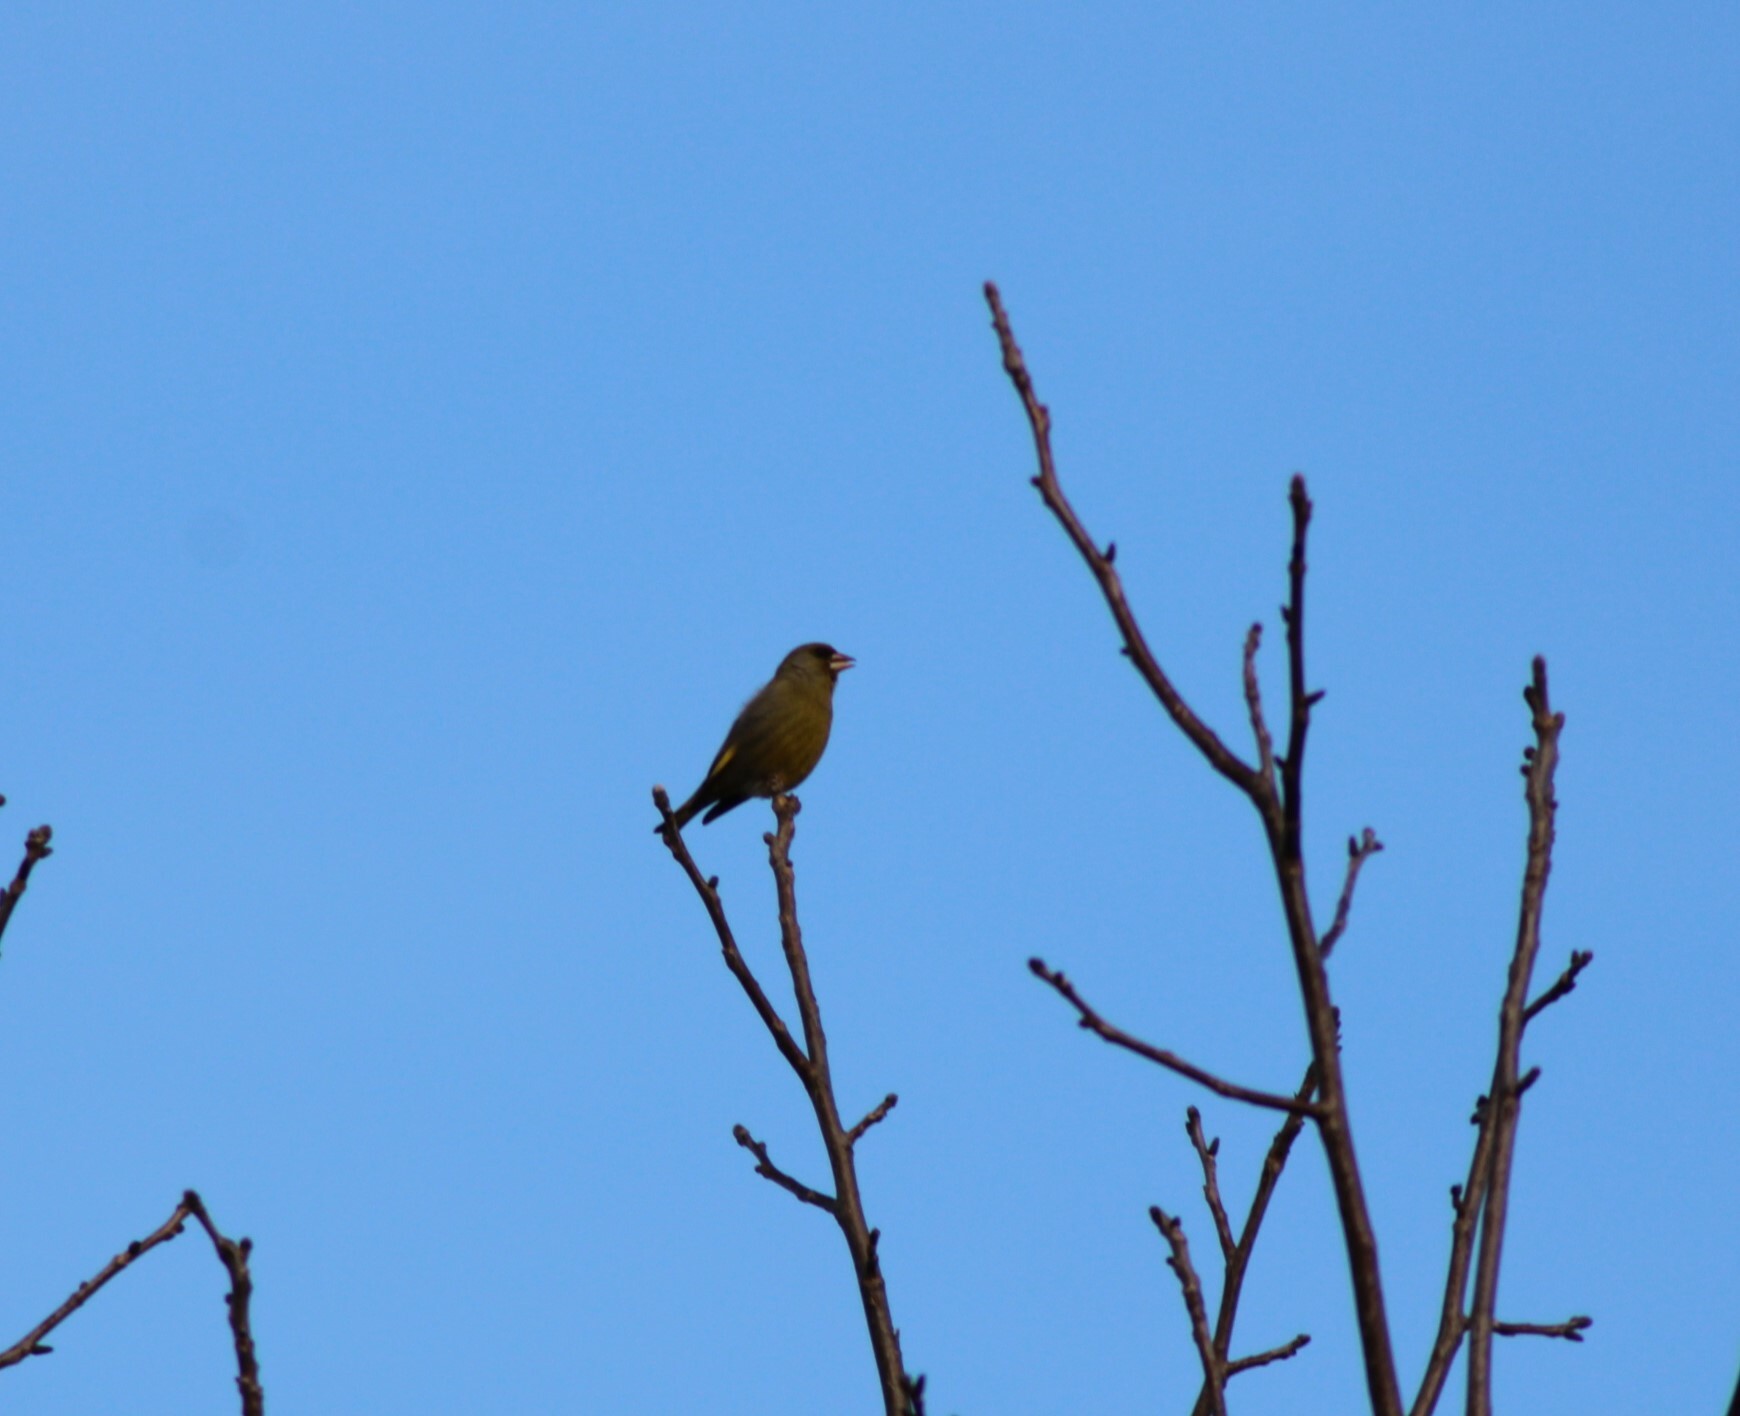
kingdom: Plantae
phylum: Tracheophyta
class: Liliopsida
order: Poales
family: Poaceae
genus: Chloris
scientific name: Chloris chloris
